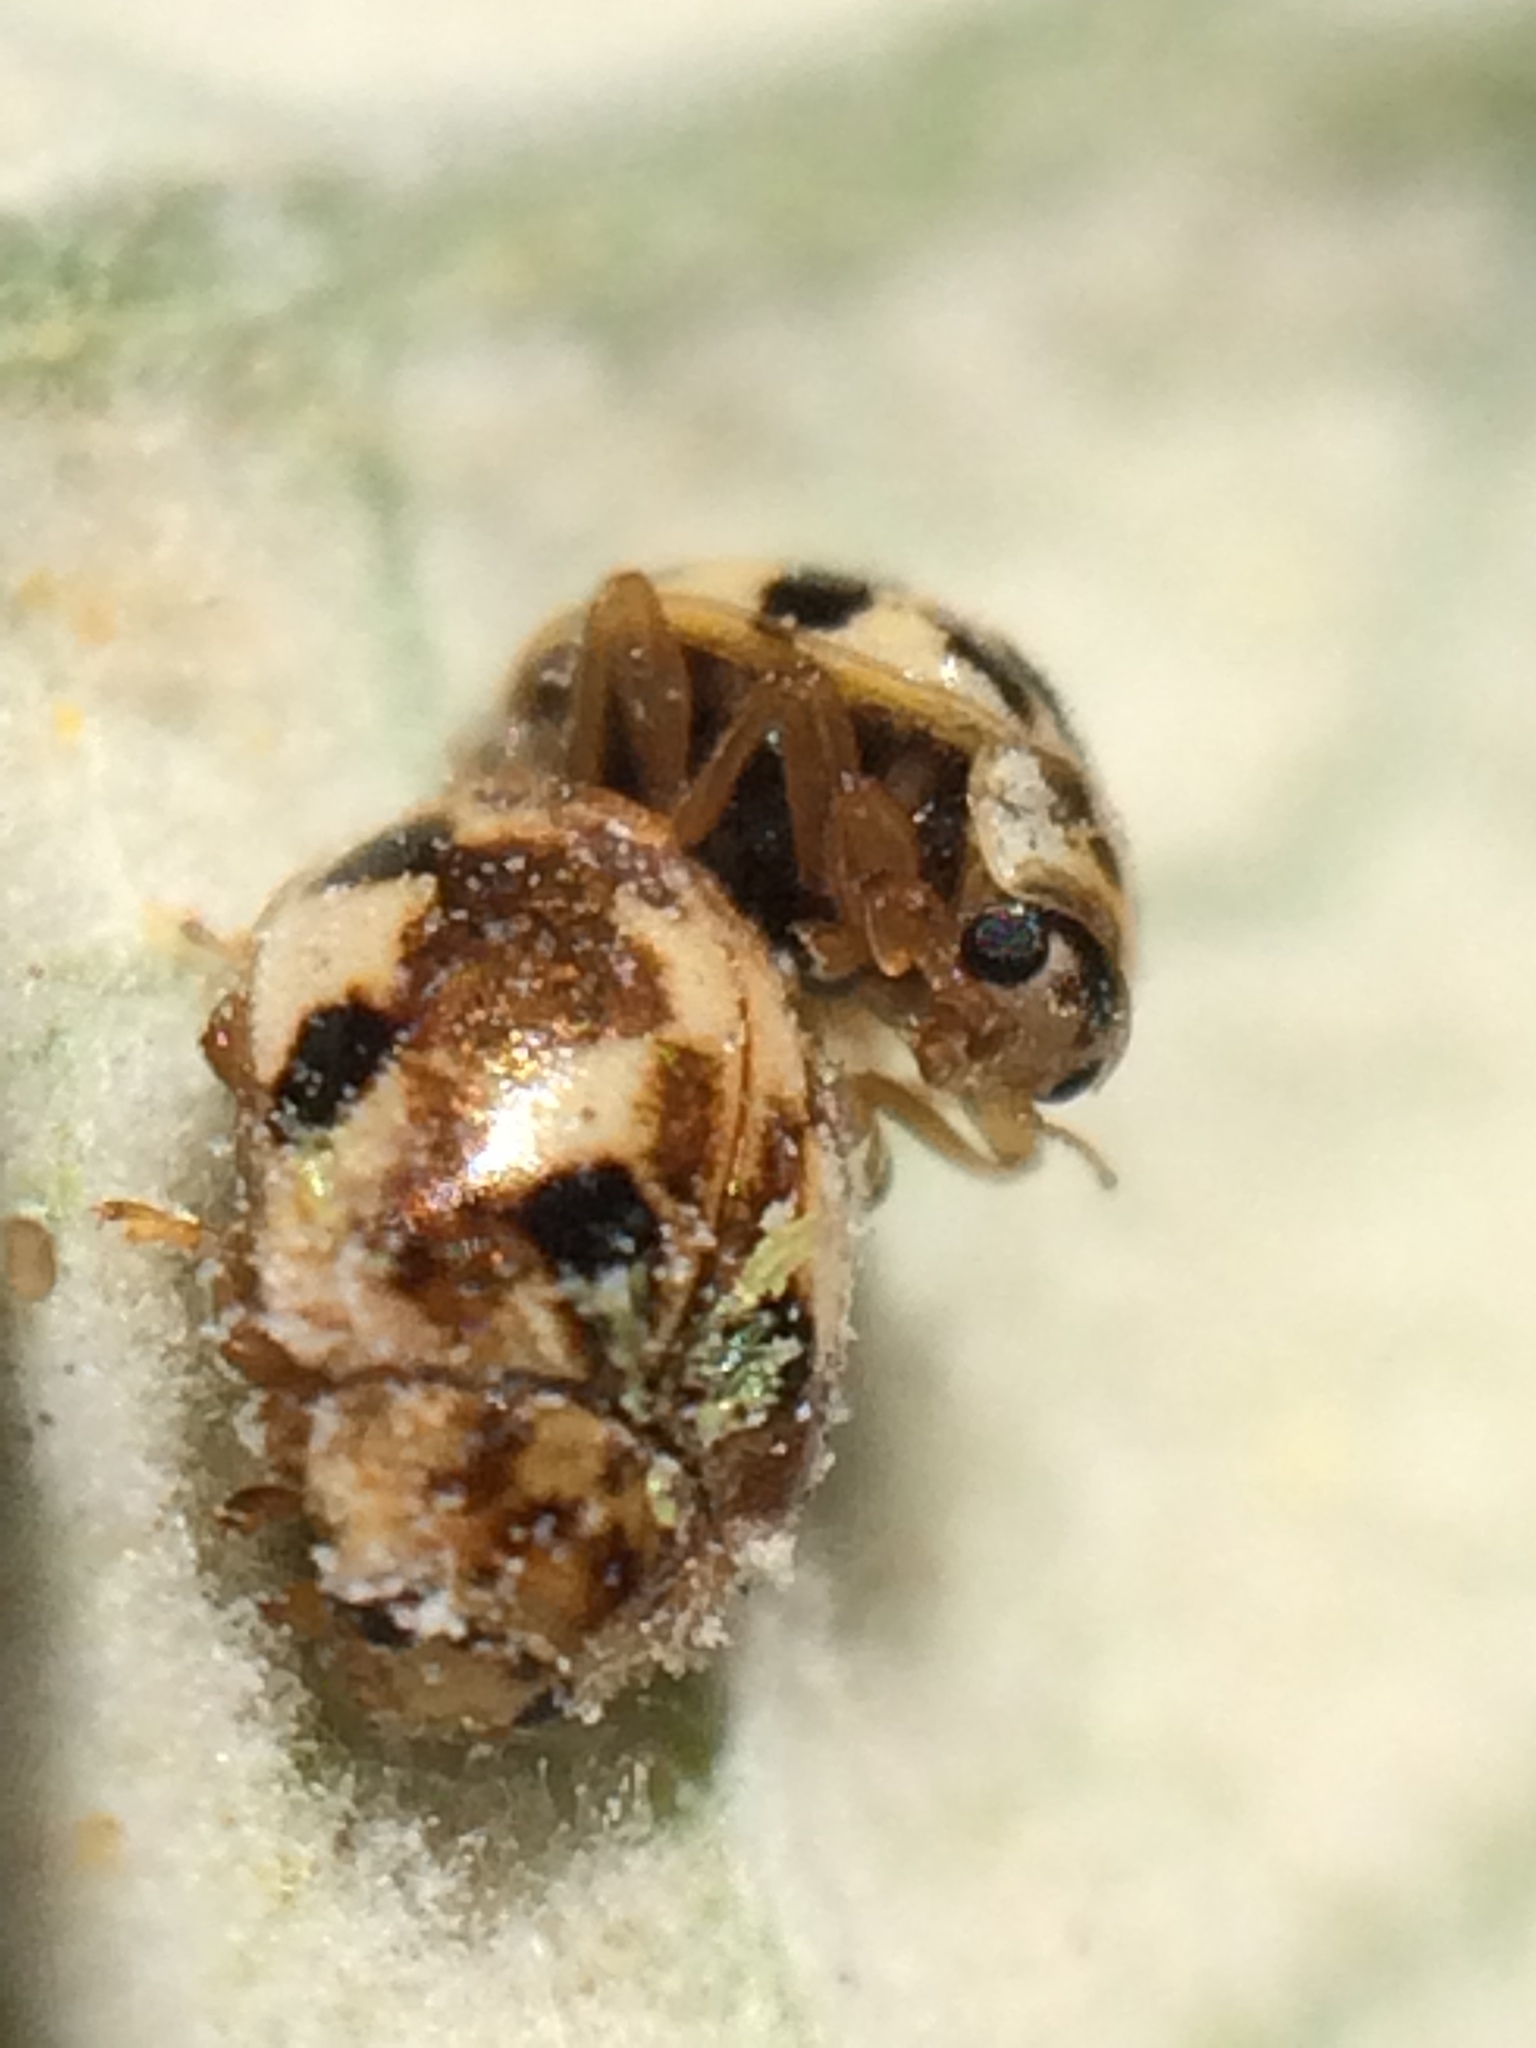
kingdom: Animalia
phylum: Arthropoda
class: Insecta
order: Coleoptera
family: Coccinellidae
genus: Psyllobora
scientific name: Psyllobora vigintimaculata
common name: Ladybird beetle
